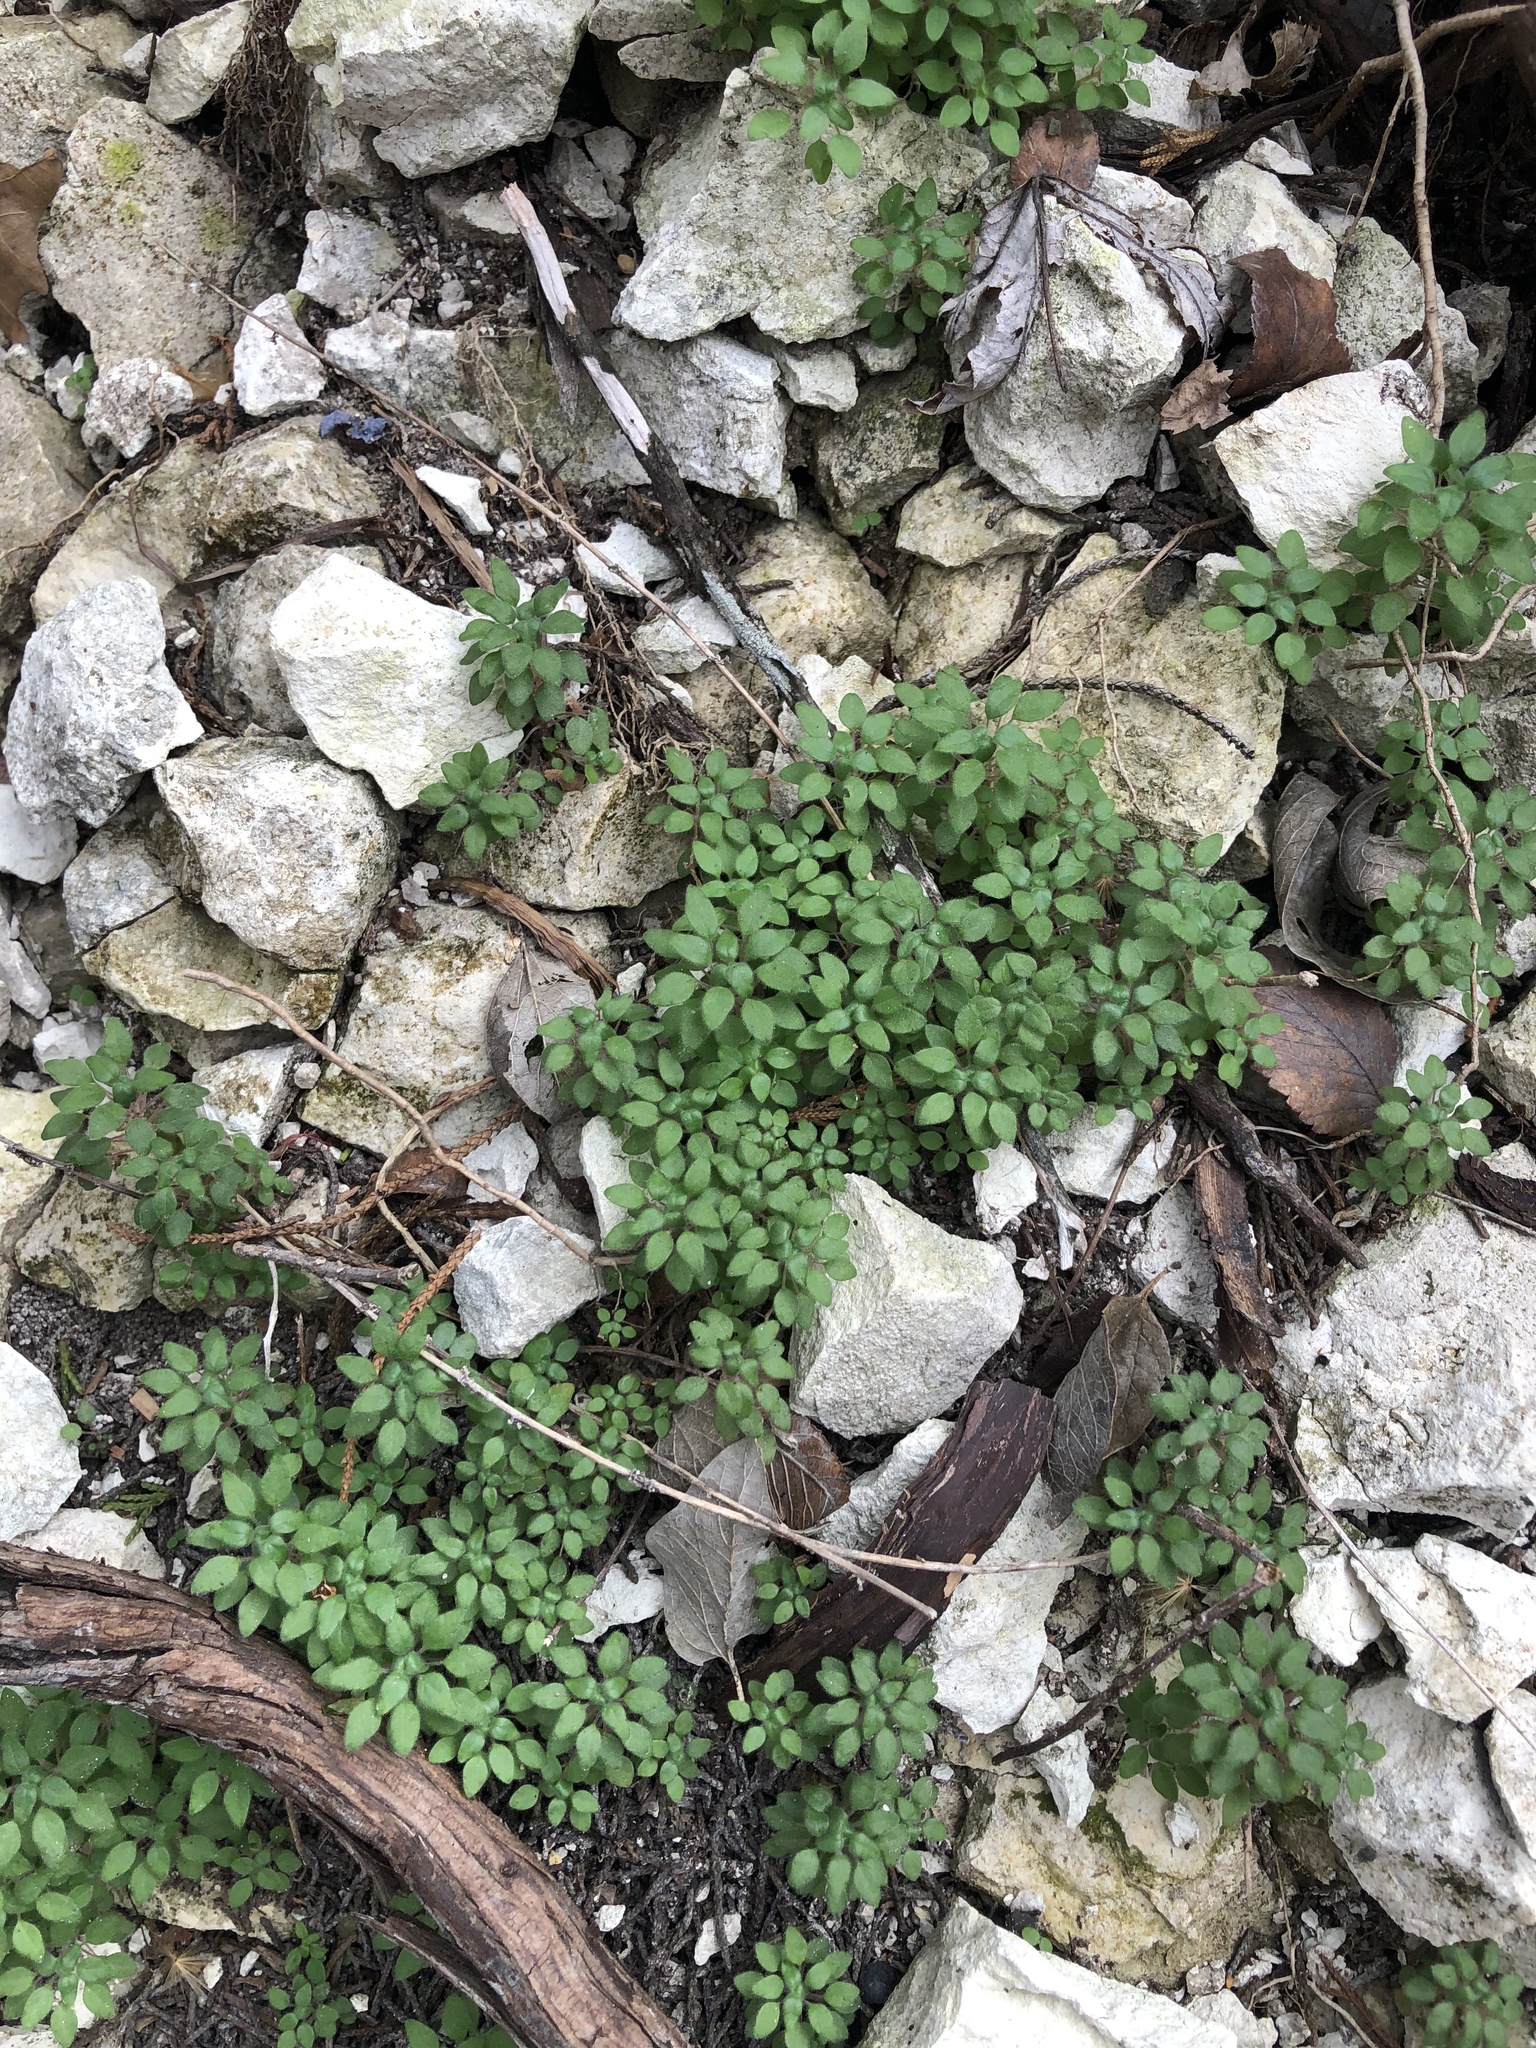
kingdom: Plantae
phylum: Tracheophyta
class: Magnoliopsida
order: Rosales
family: Urticaceae
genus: Parietaria
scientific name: Parietaria pensylvanica
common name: Pennsylvania pellitory
